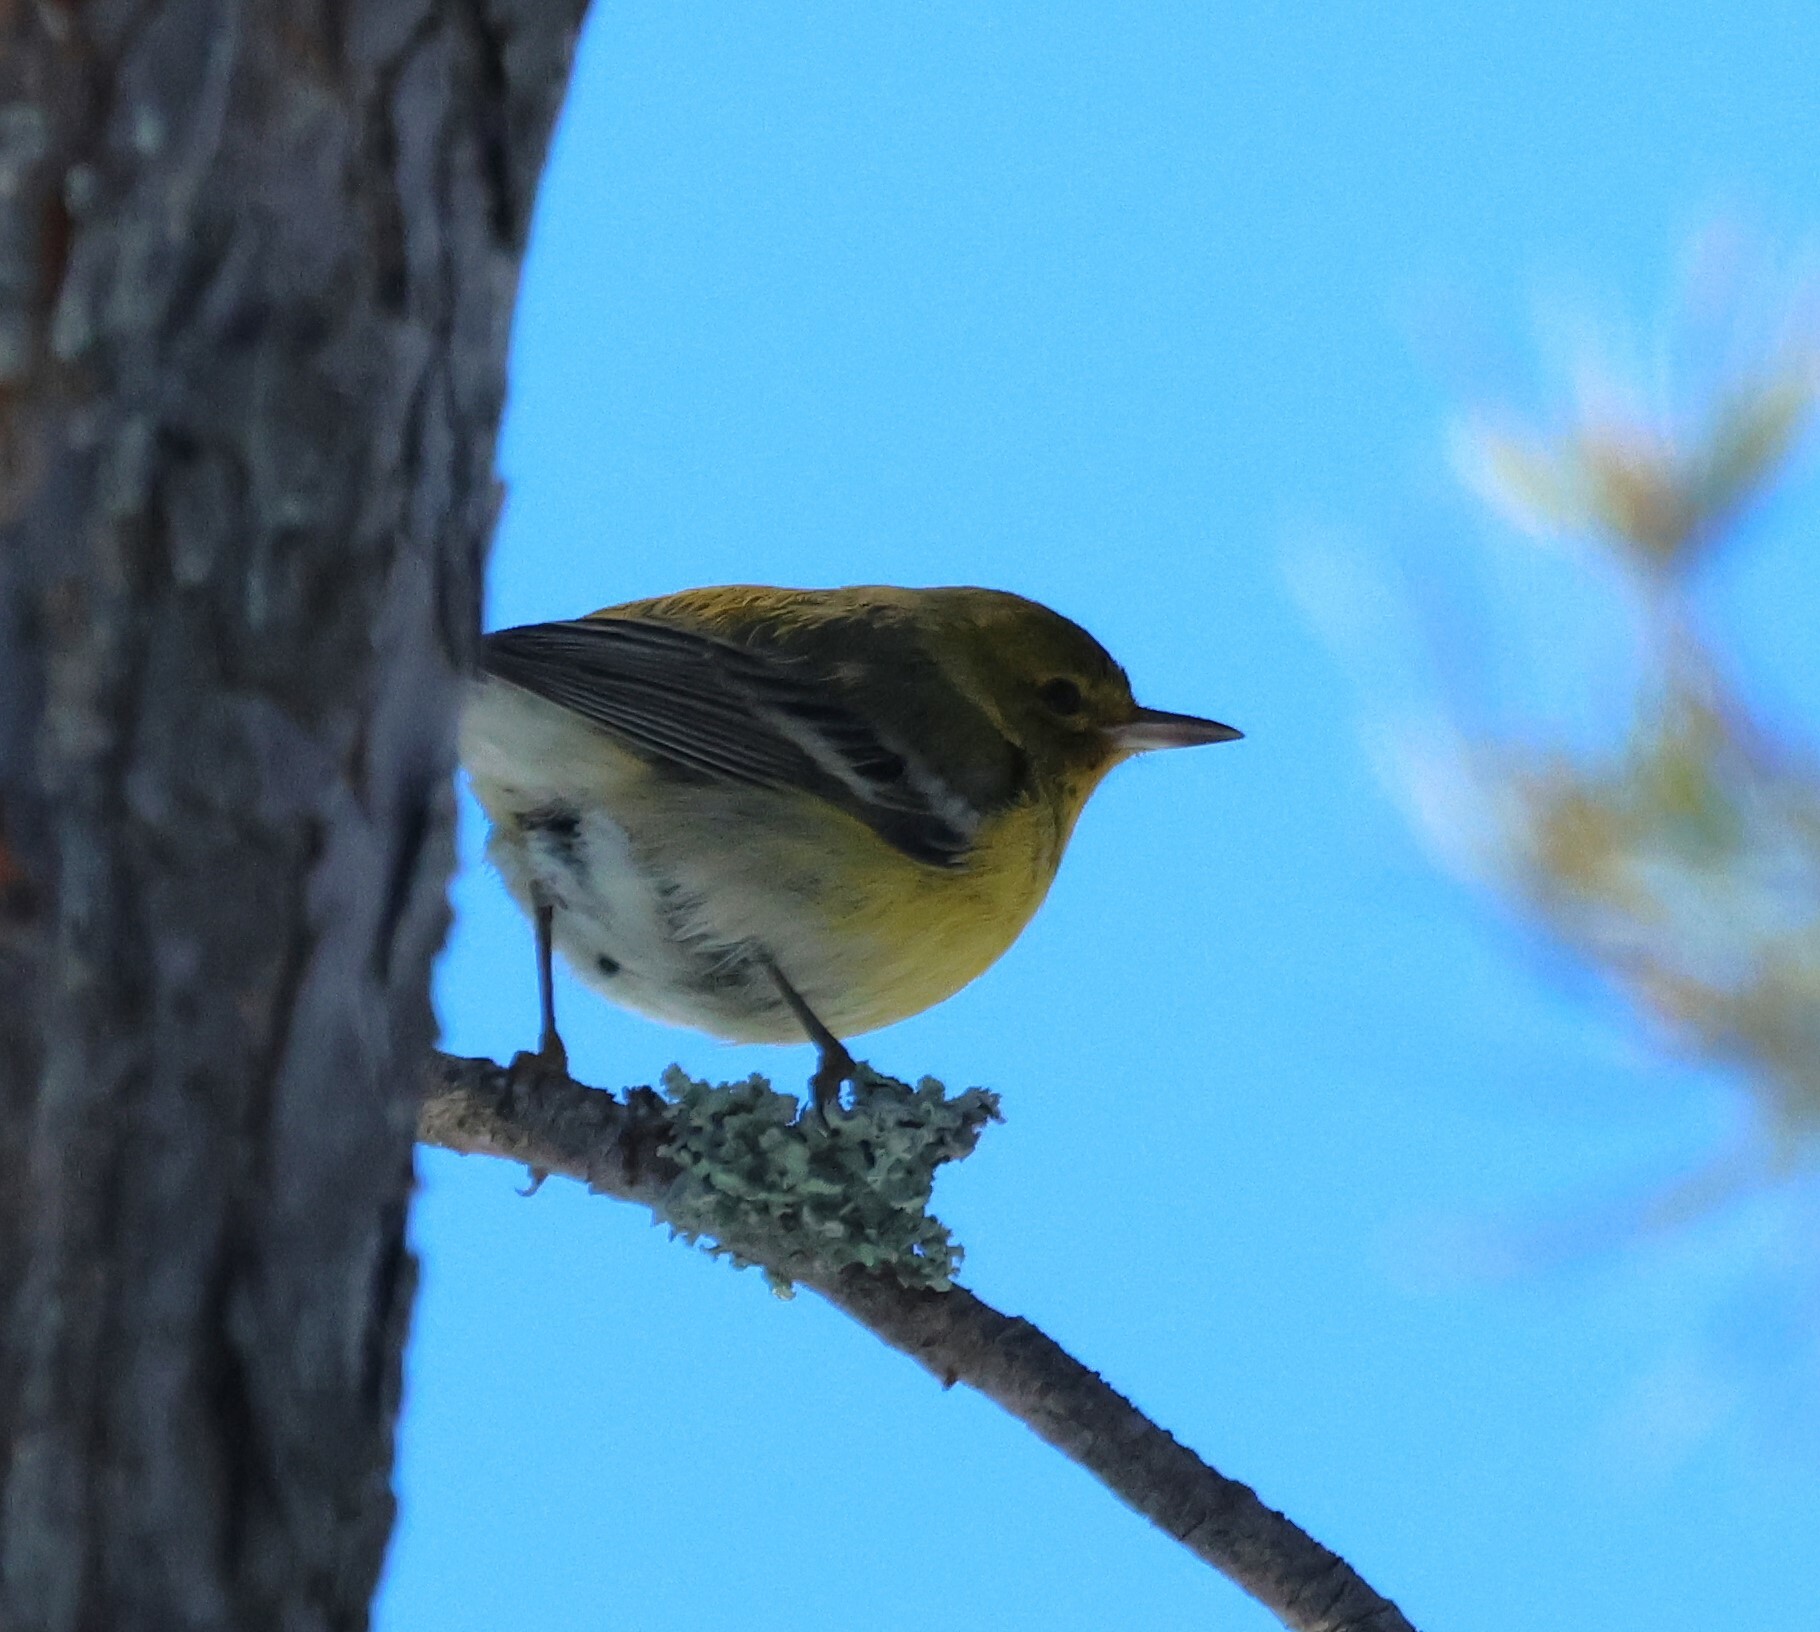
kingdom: Animalia
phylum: Chordata
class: Aves
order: Passeriformes
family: Parulidae
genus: Setophaga
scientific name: Setophaga pinus
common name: Pine warbler
